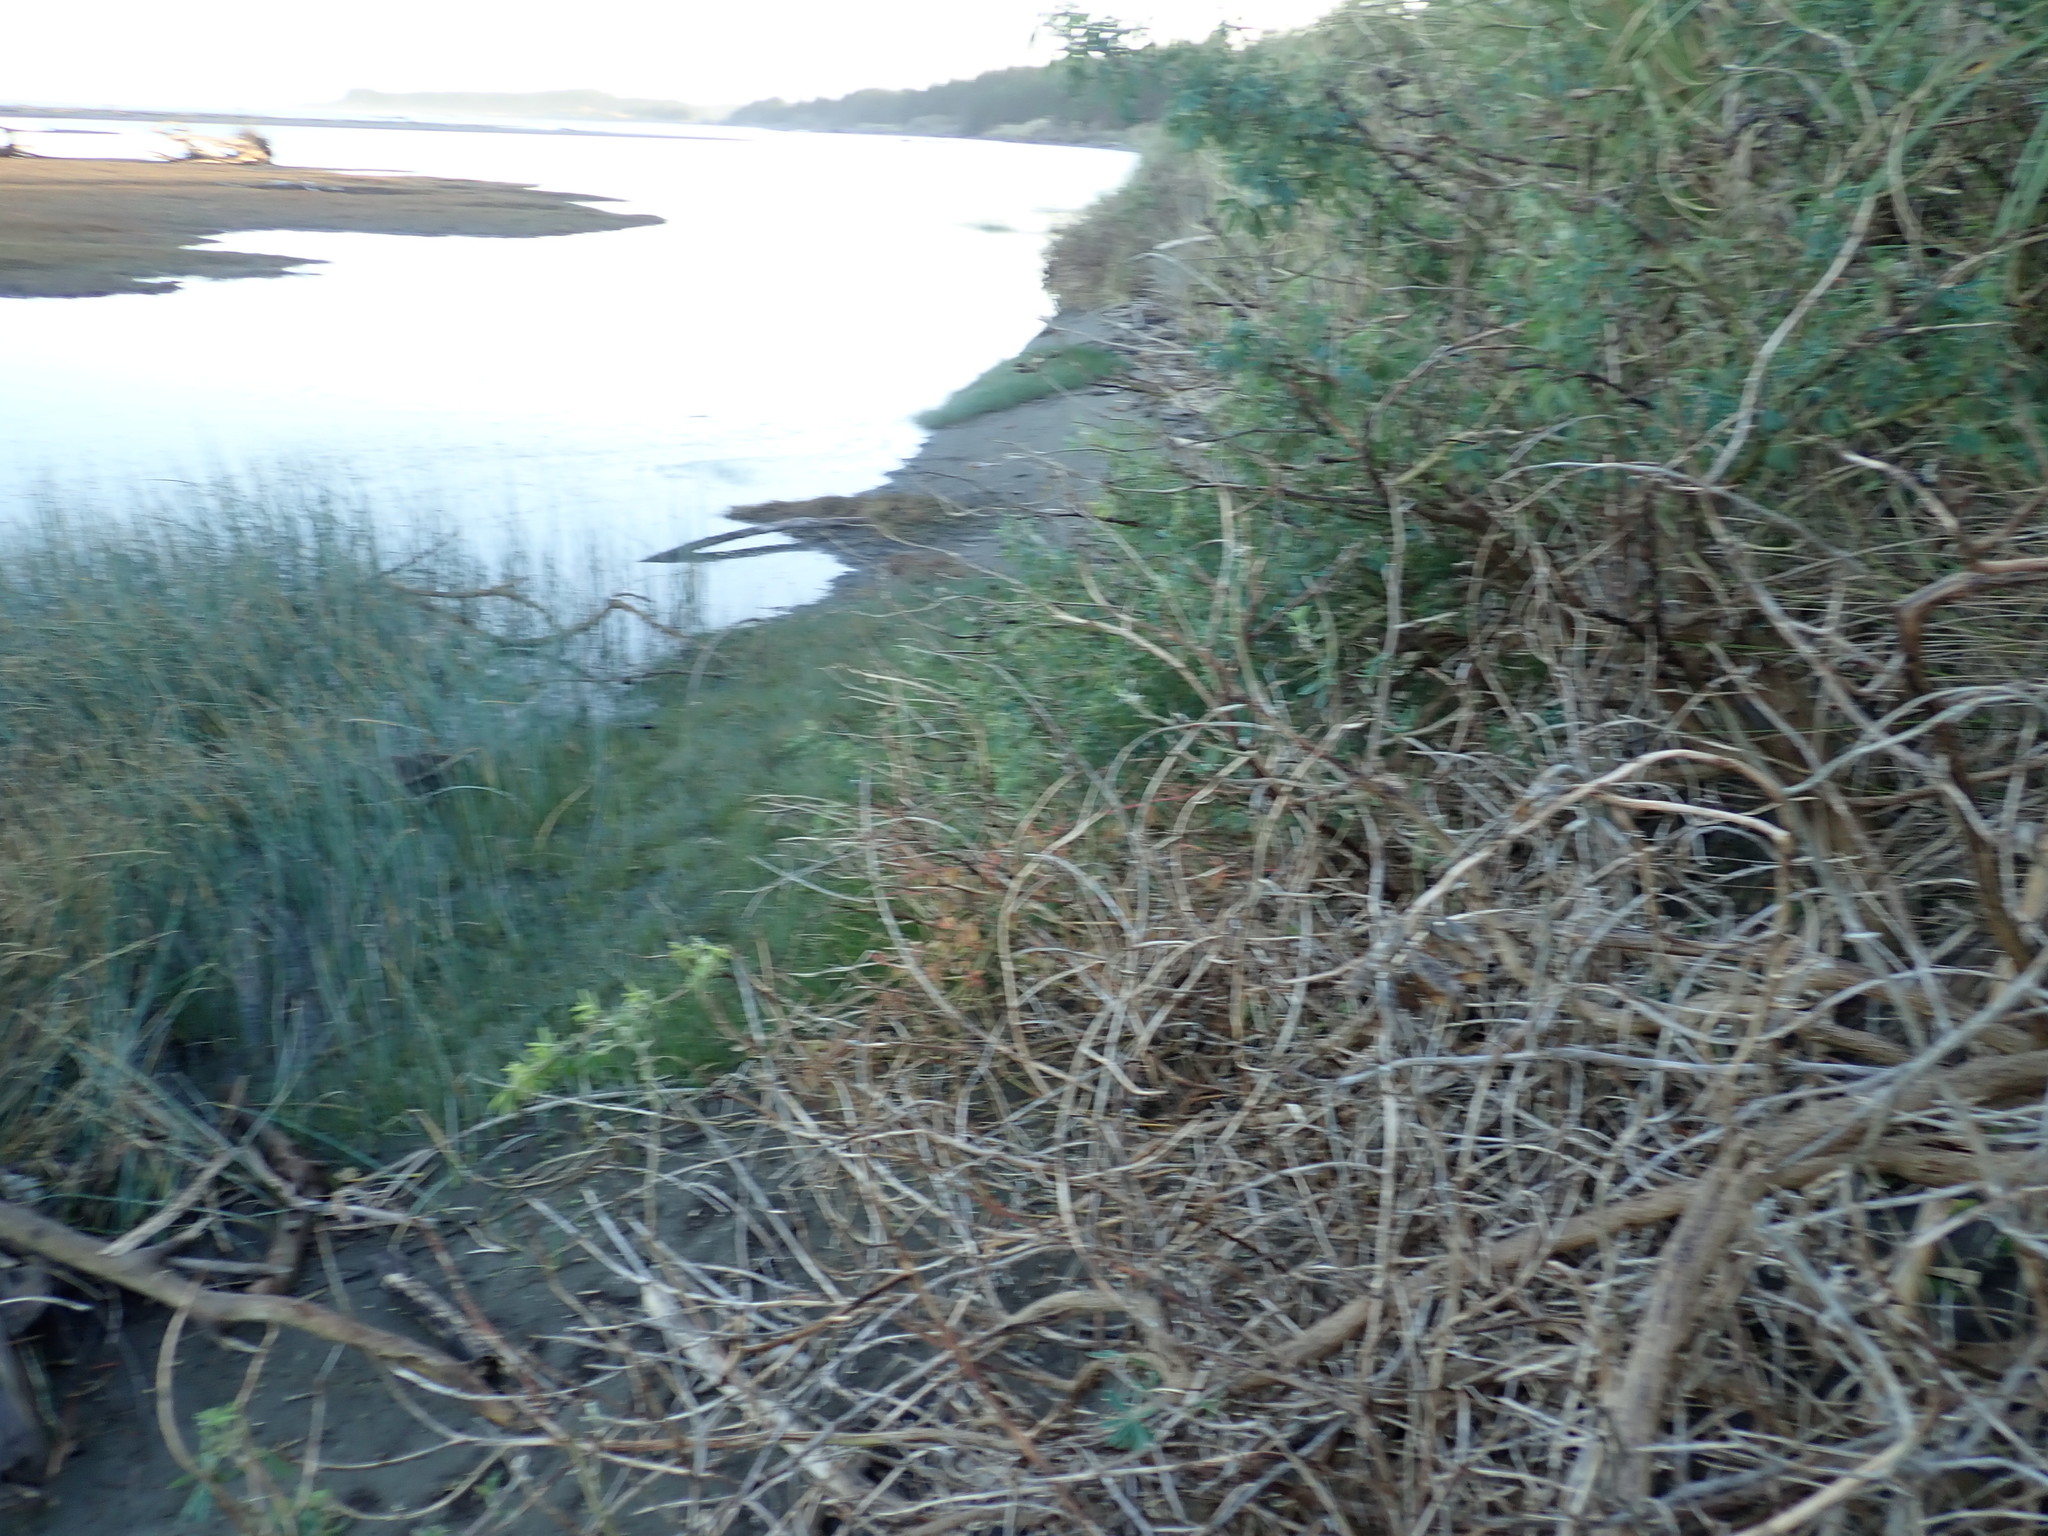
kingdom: Plantae
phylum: Tracheophyta
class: Magnoliopsida
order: Fabales
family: Fabaceae
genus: Lupinus
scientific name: Lupinus arboreus
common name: Yellow bush lupine
